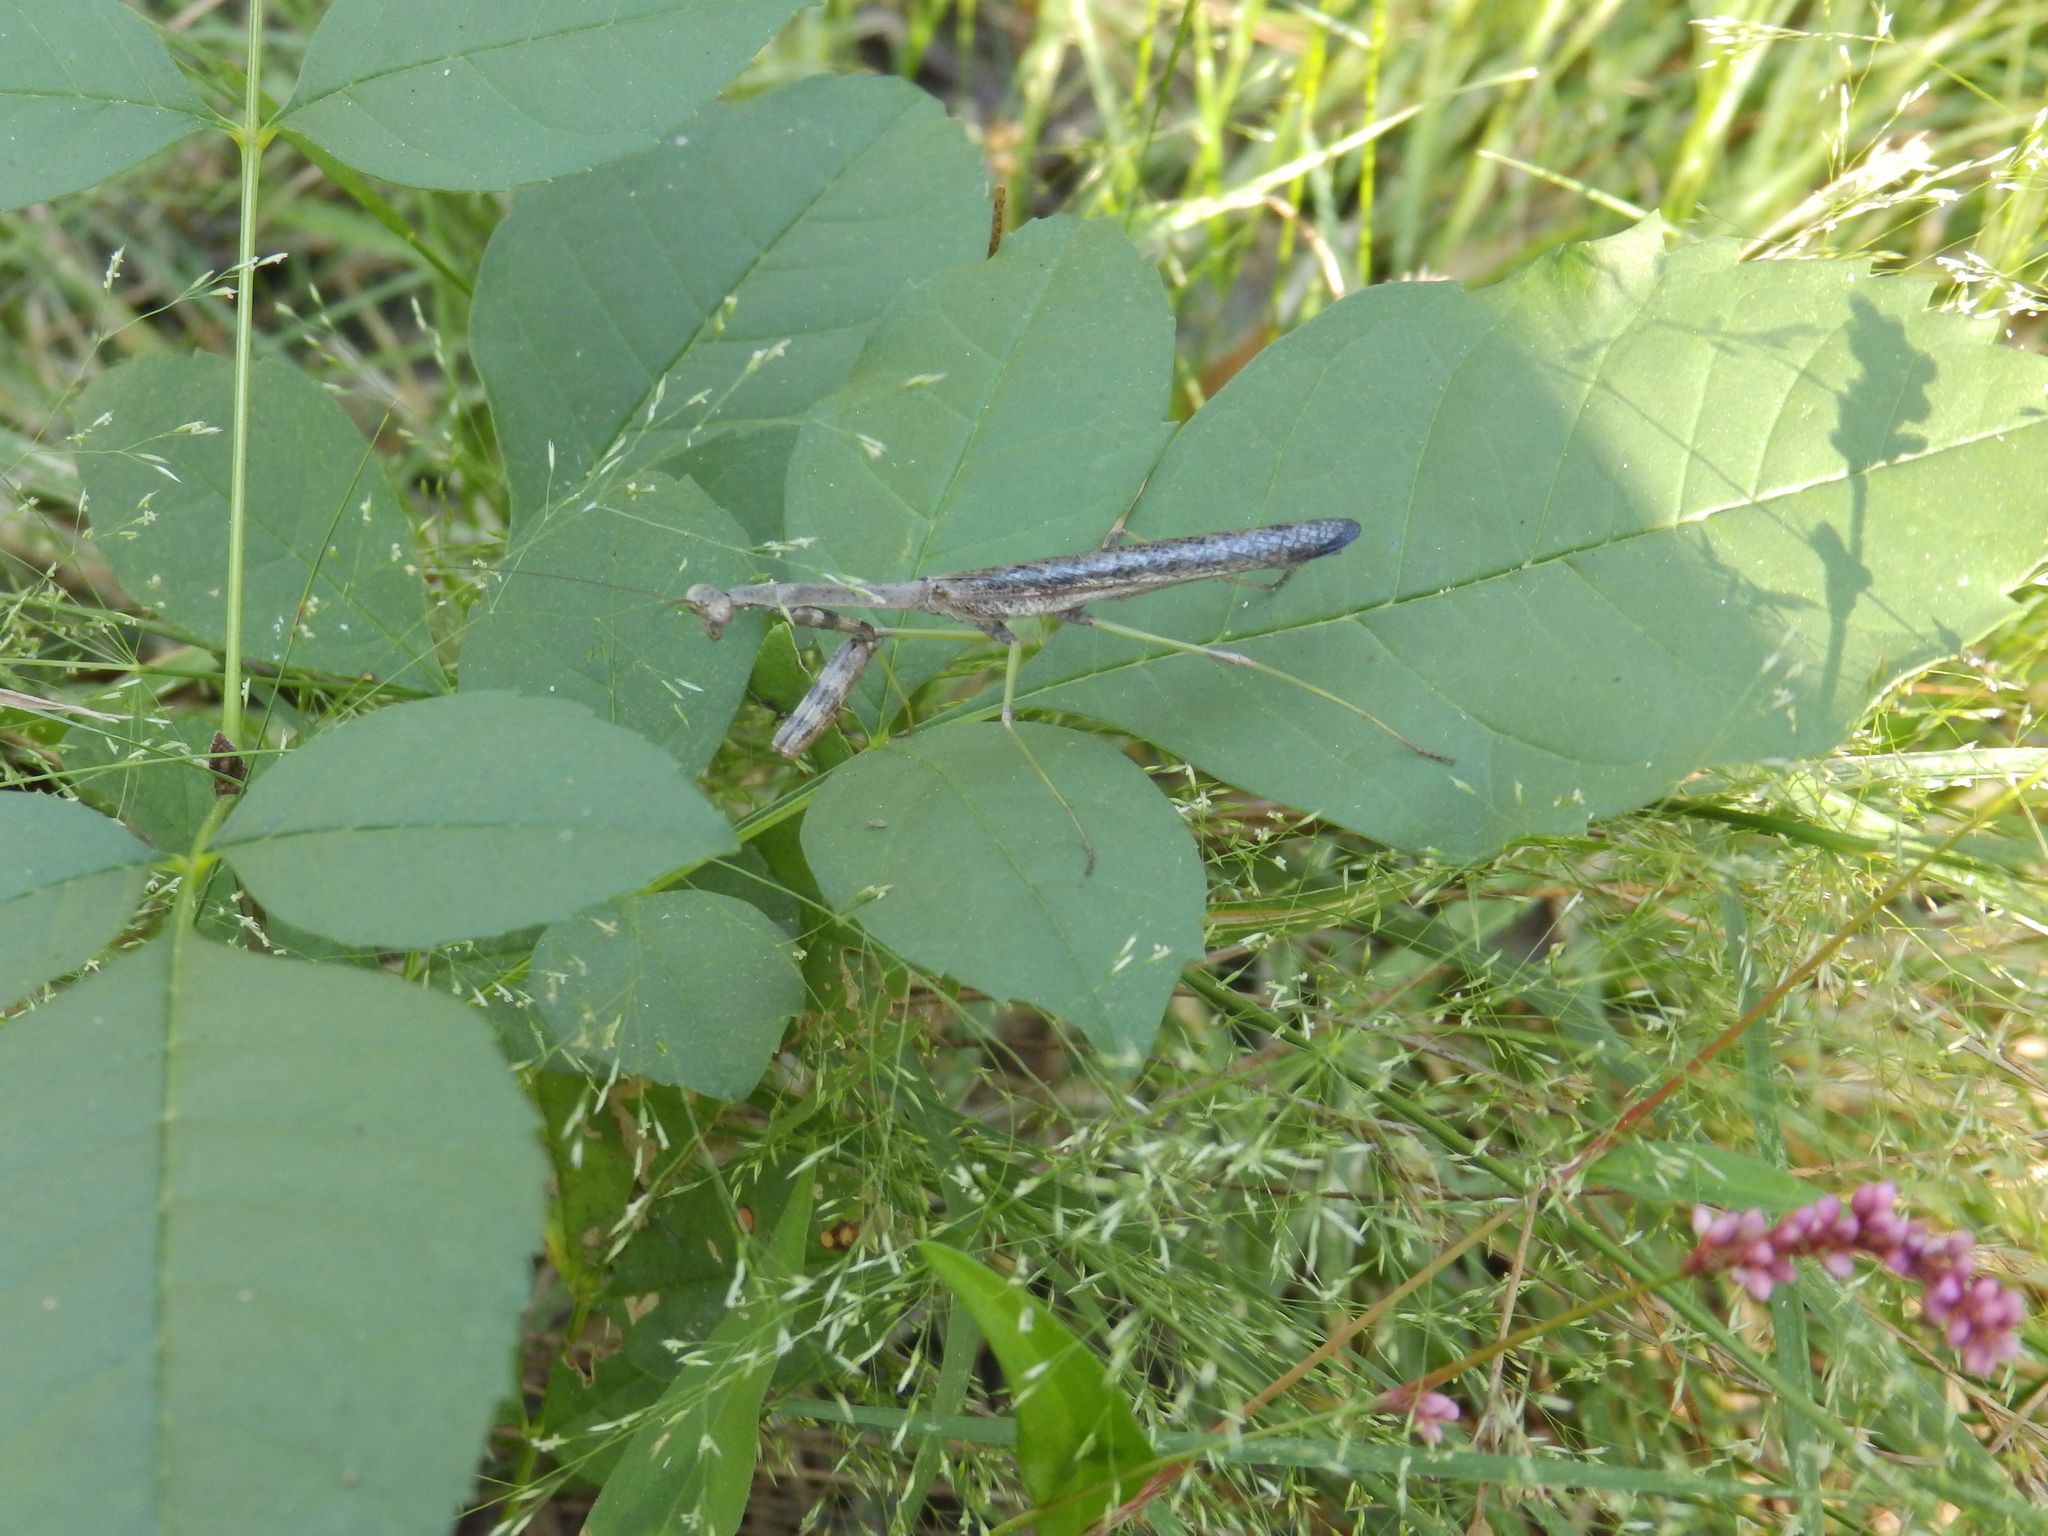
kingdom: Animalia
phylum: Arthropoda
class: Insecta
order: Mantodea
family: Mantidae
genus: Stagmomantis
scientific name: Stagmomantis carolina
